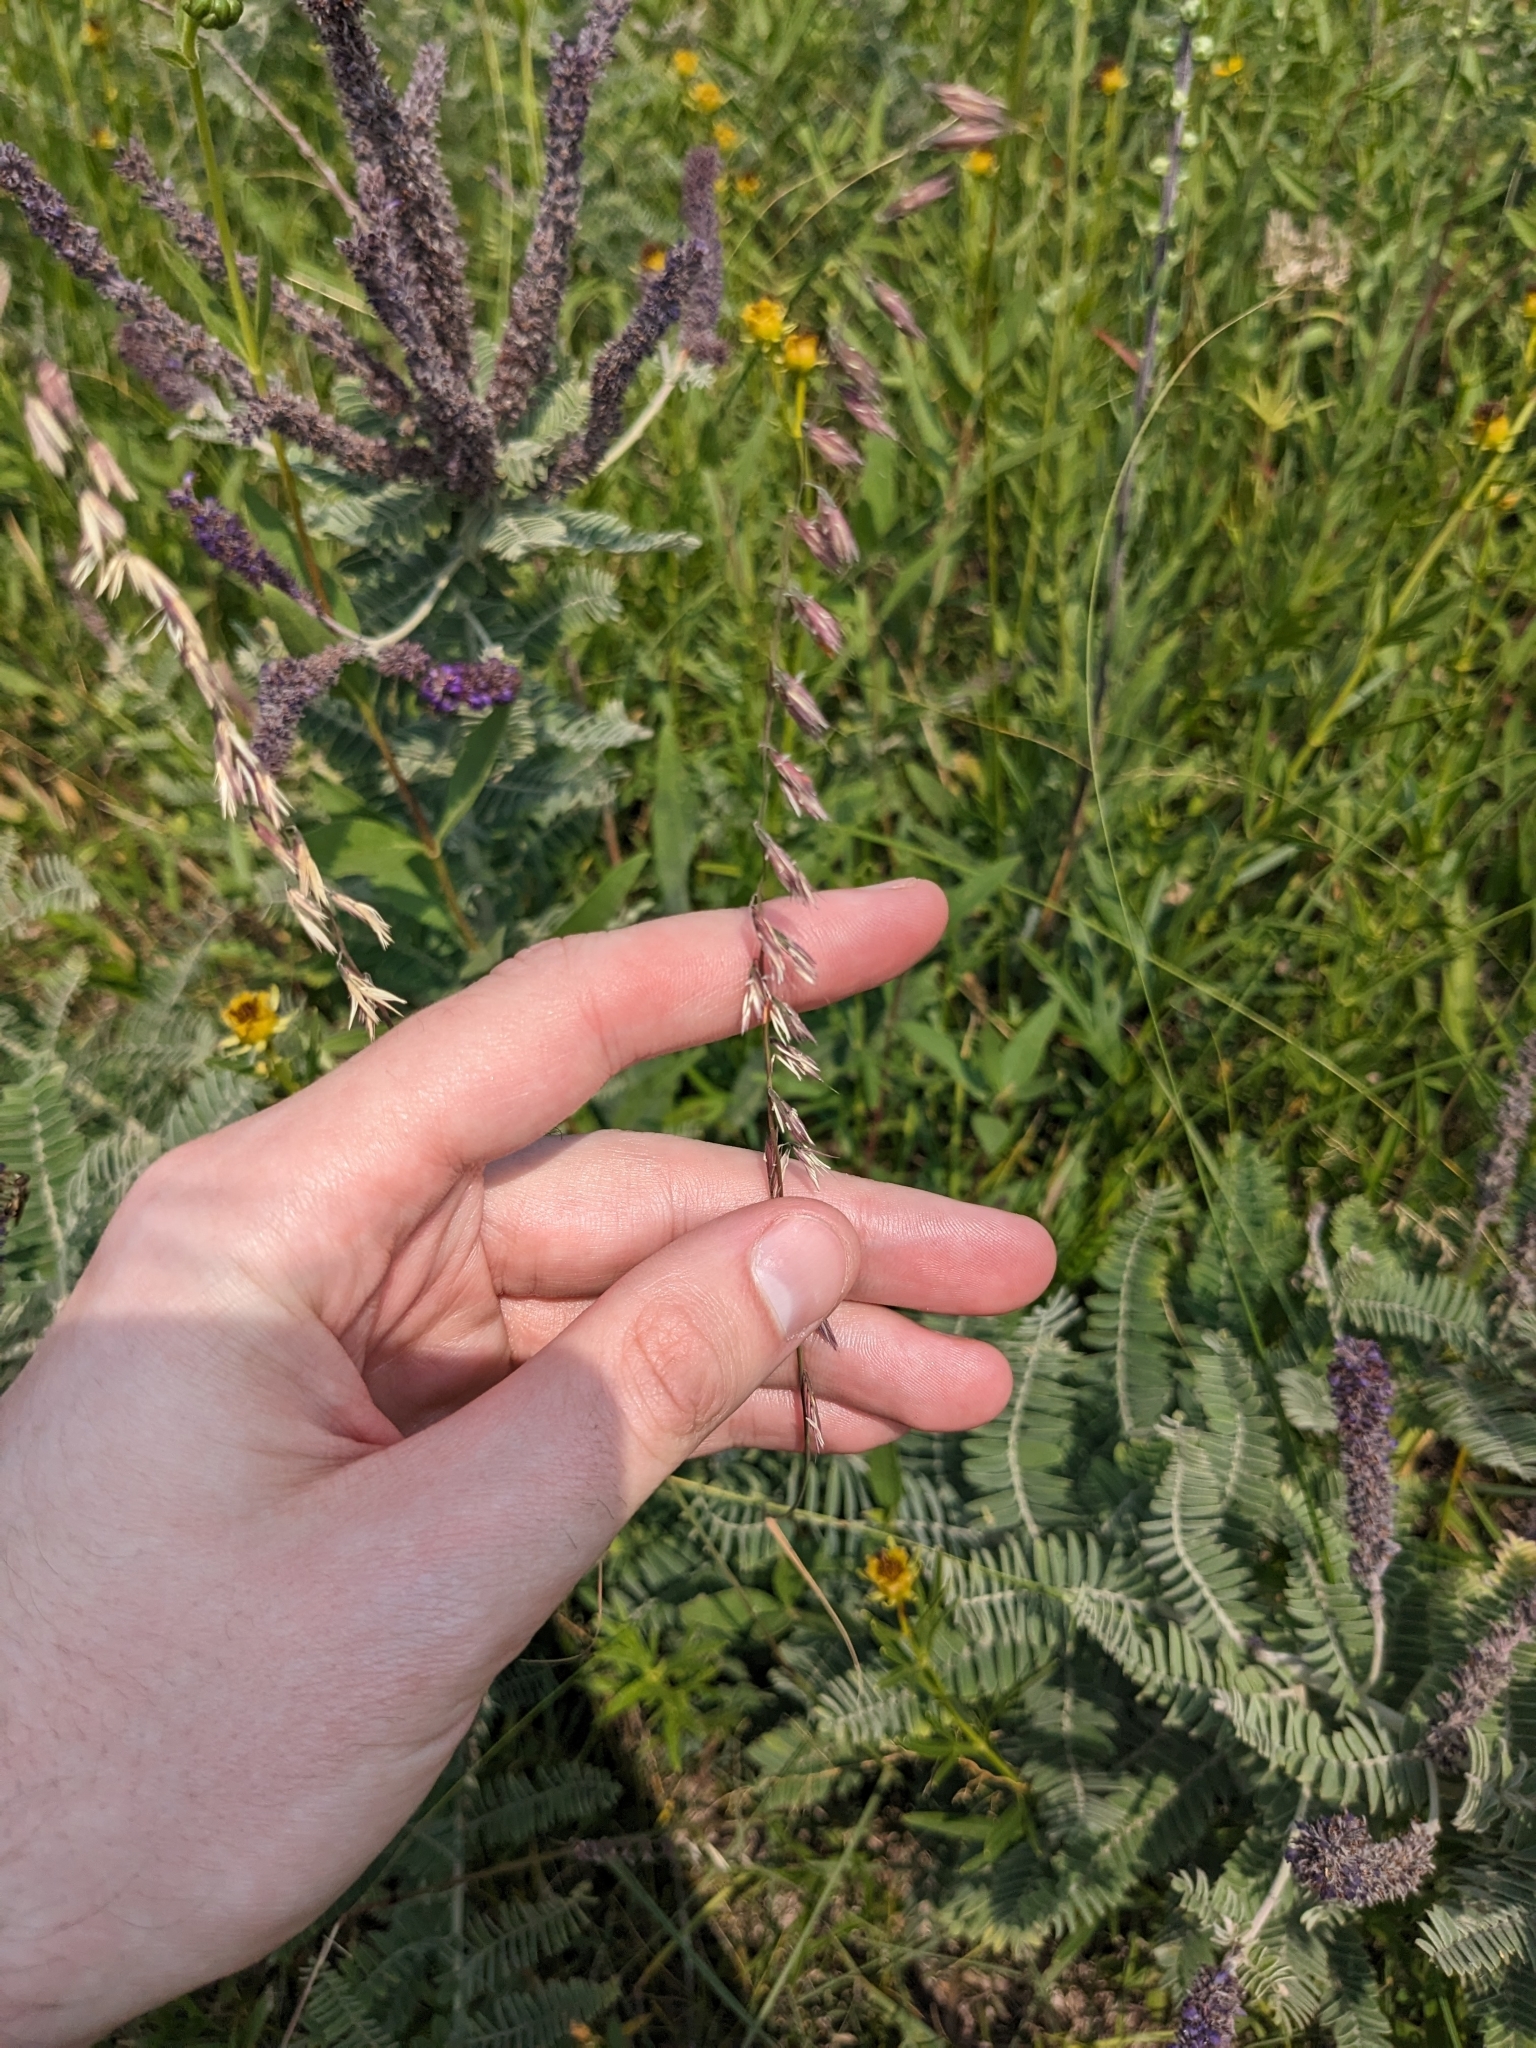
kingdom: Plantae
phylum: Tracheophyta
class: Liliopsida
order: Poales
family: Poaceae
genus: Bouteloua
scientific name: Bouteloua curtipendula
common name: Side-oats grama
